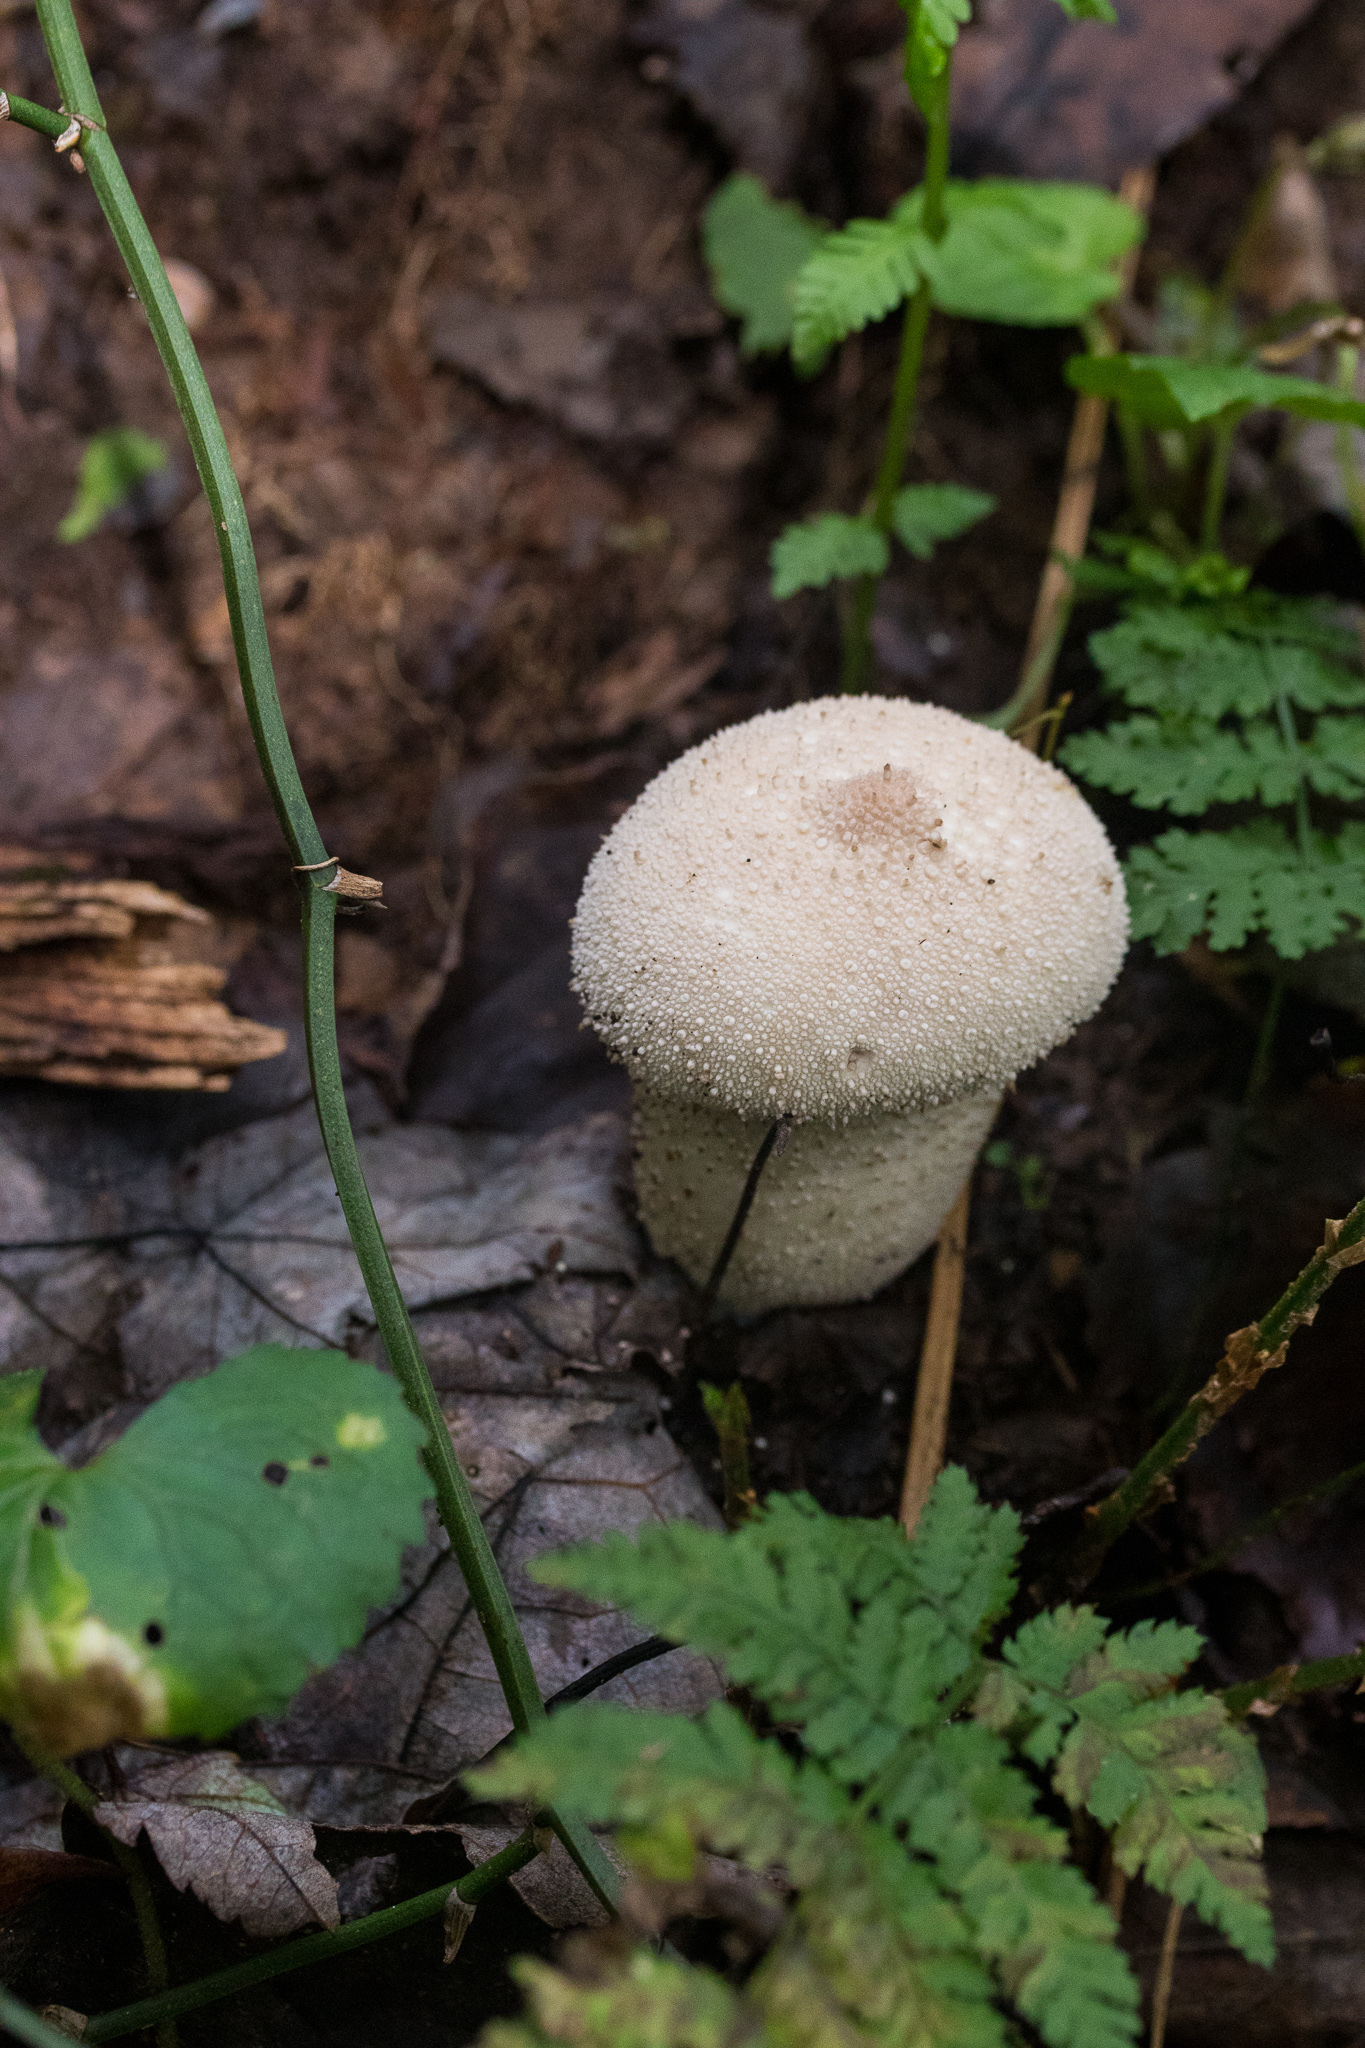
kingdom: Fungi
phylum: Basidiomycota
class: Agaricomycetes
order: Agaricales
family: Lycoperdaceae
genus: Lycoperdon
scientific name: Lycoperdon perlatum
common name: Common puffball
